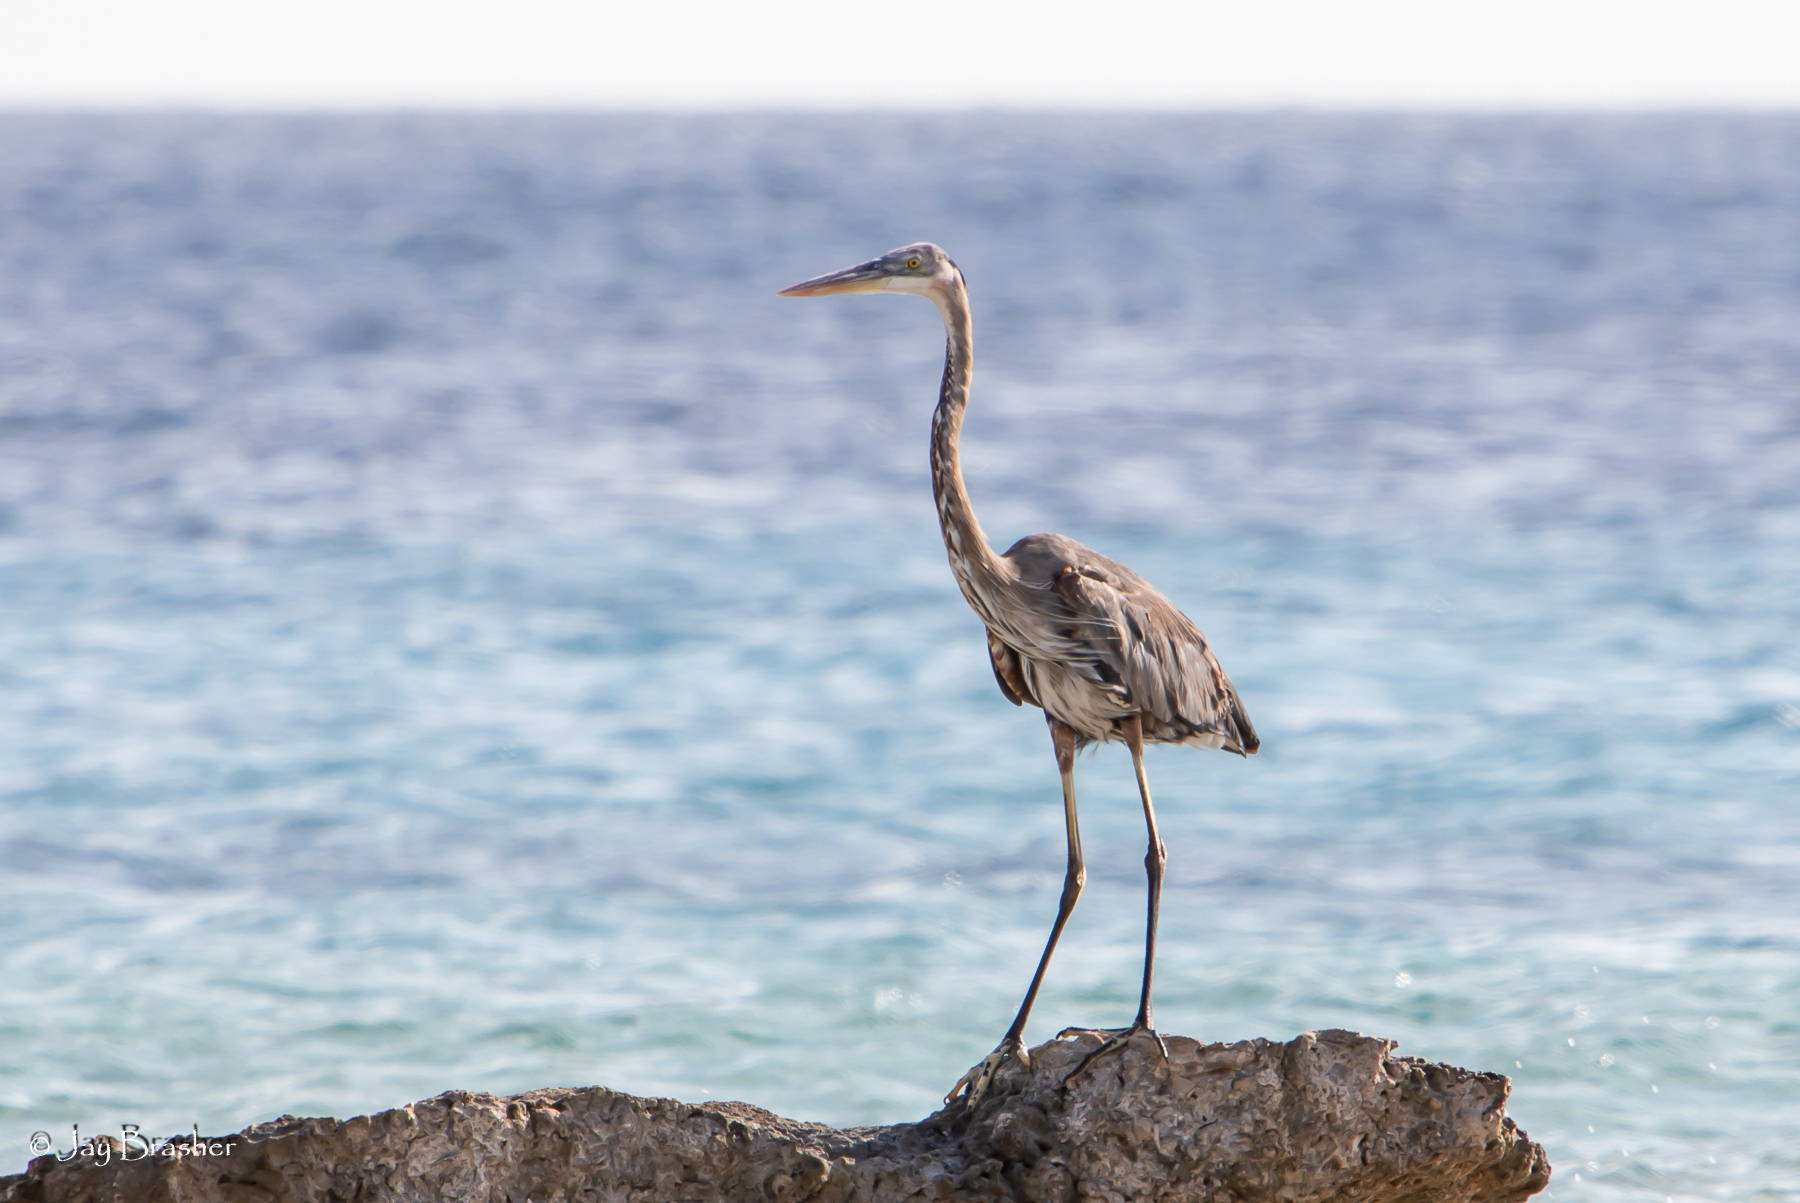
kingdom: Animalia
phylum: Chordata
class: Aves
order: Pelecaniformes
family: Ardeidae
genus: Ardea
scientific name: Ardea herodias
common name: Great blue heron
